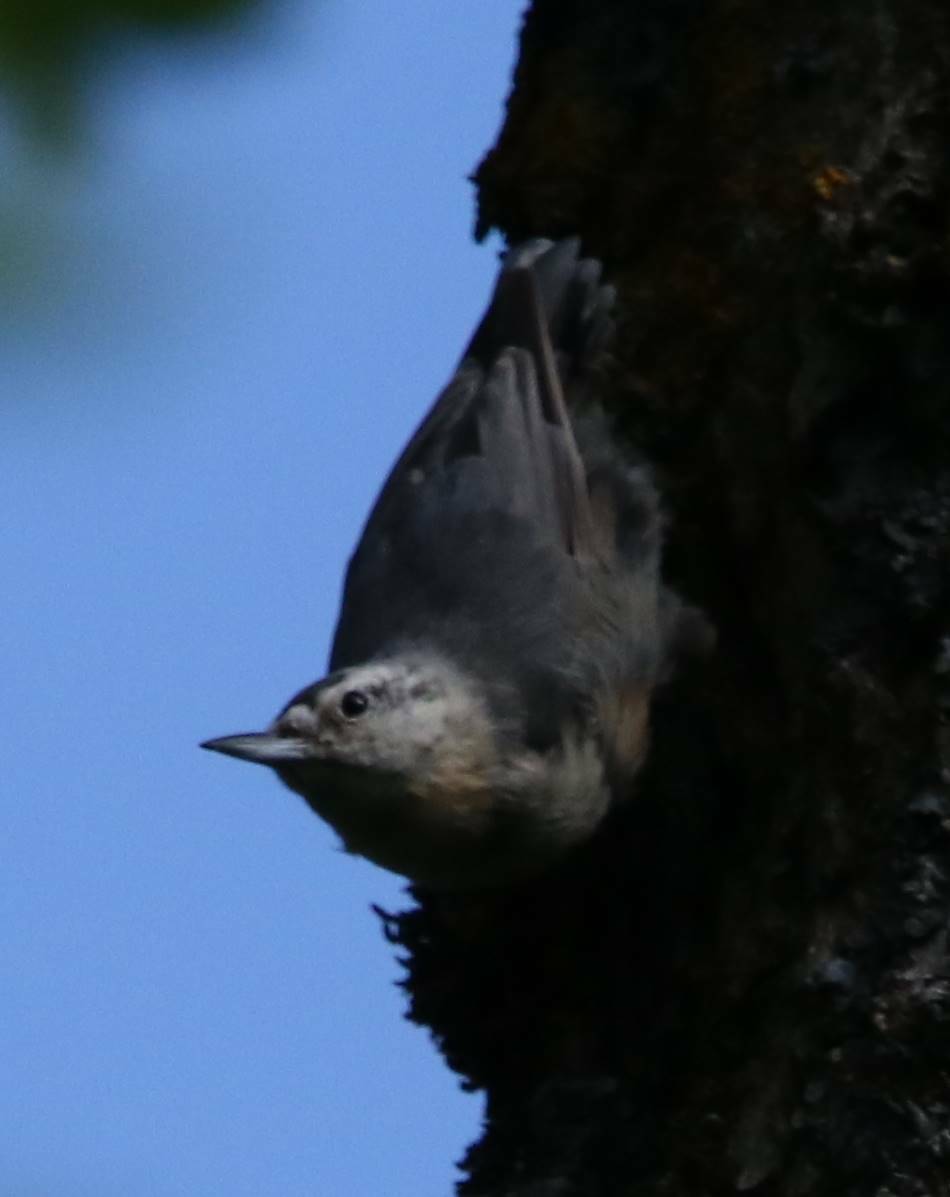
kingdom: Animalia
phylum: Chordata
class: Aves
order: Passeriformes
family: Sittidae
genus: Sitta
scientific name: Sitta ledanti
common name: Algerian nuthatch
